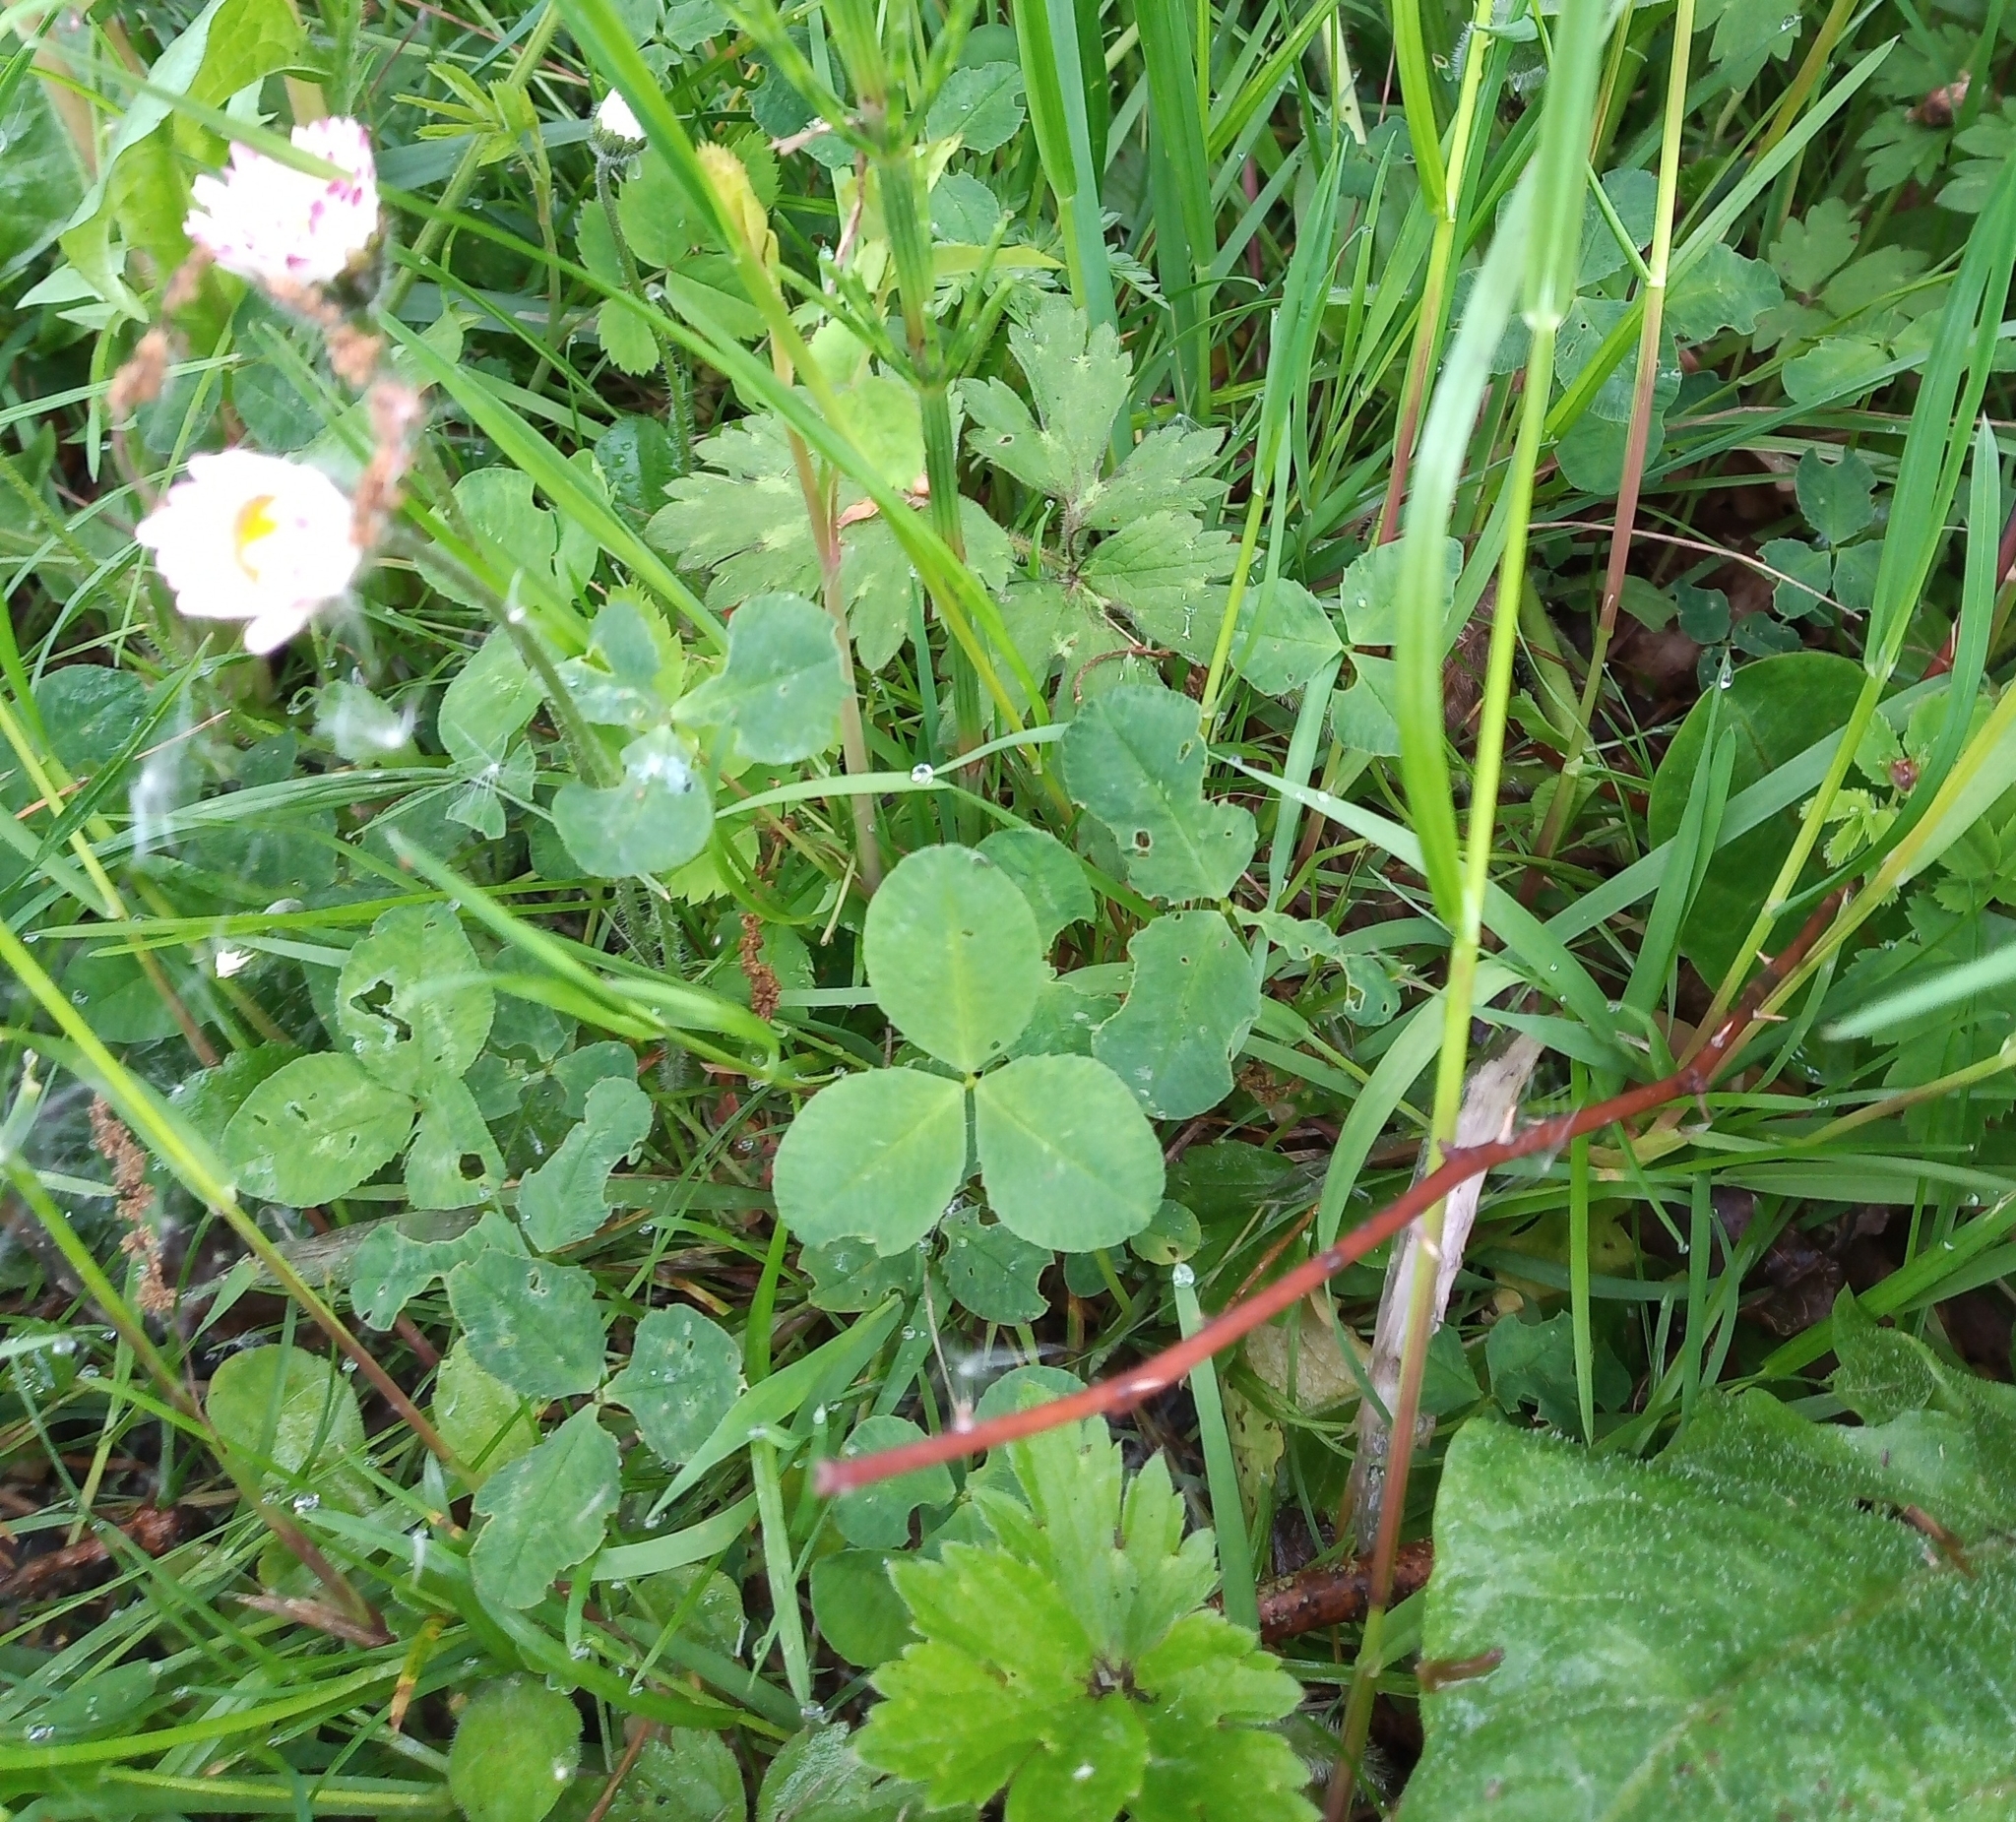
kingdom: Plantae
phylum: Tracheophyta
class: Magnoliopsida
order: Fabales
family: Fabaceae
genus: Trifolium
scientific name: Trifolium repens
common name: White clover
